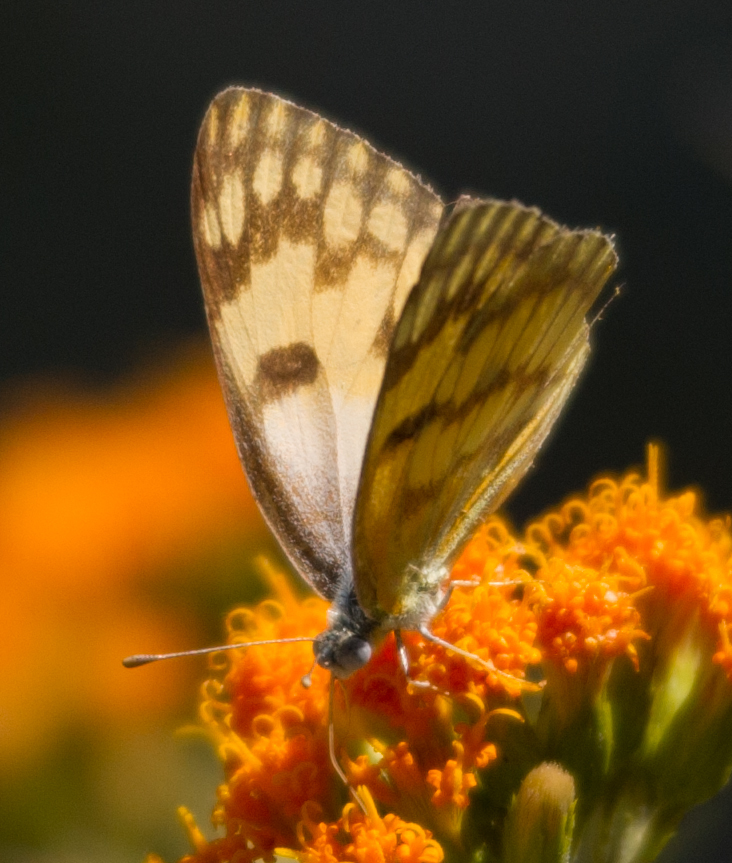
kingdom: Animalia
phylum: Arthropoda
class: Insecta
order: Lepidoptera
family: Pieridae
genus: Colotis
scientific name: Colotis vesta
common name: Veined golden arab
